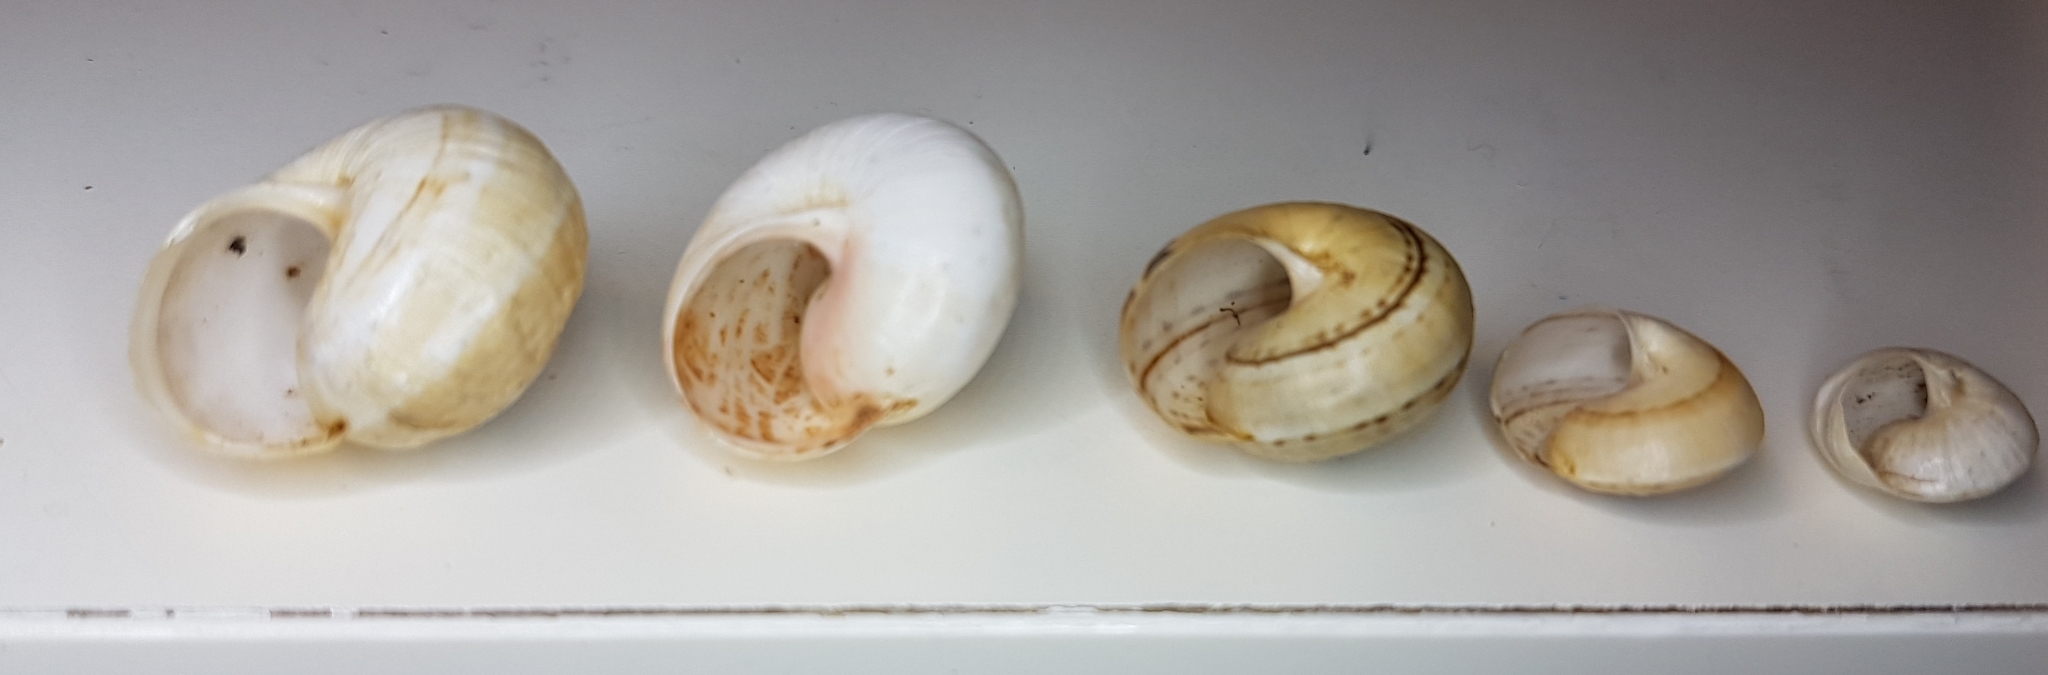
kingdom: Animalia
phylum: Mollusca
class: Gastropoda
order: Stylommatophora
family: Helicidae
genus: Theba
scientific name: Theba pisana
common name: White snail
